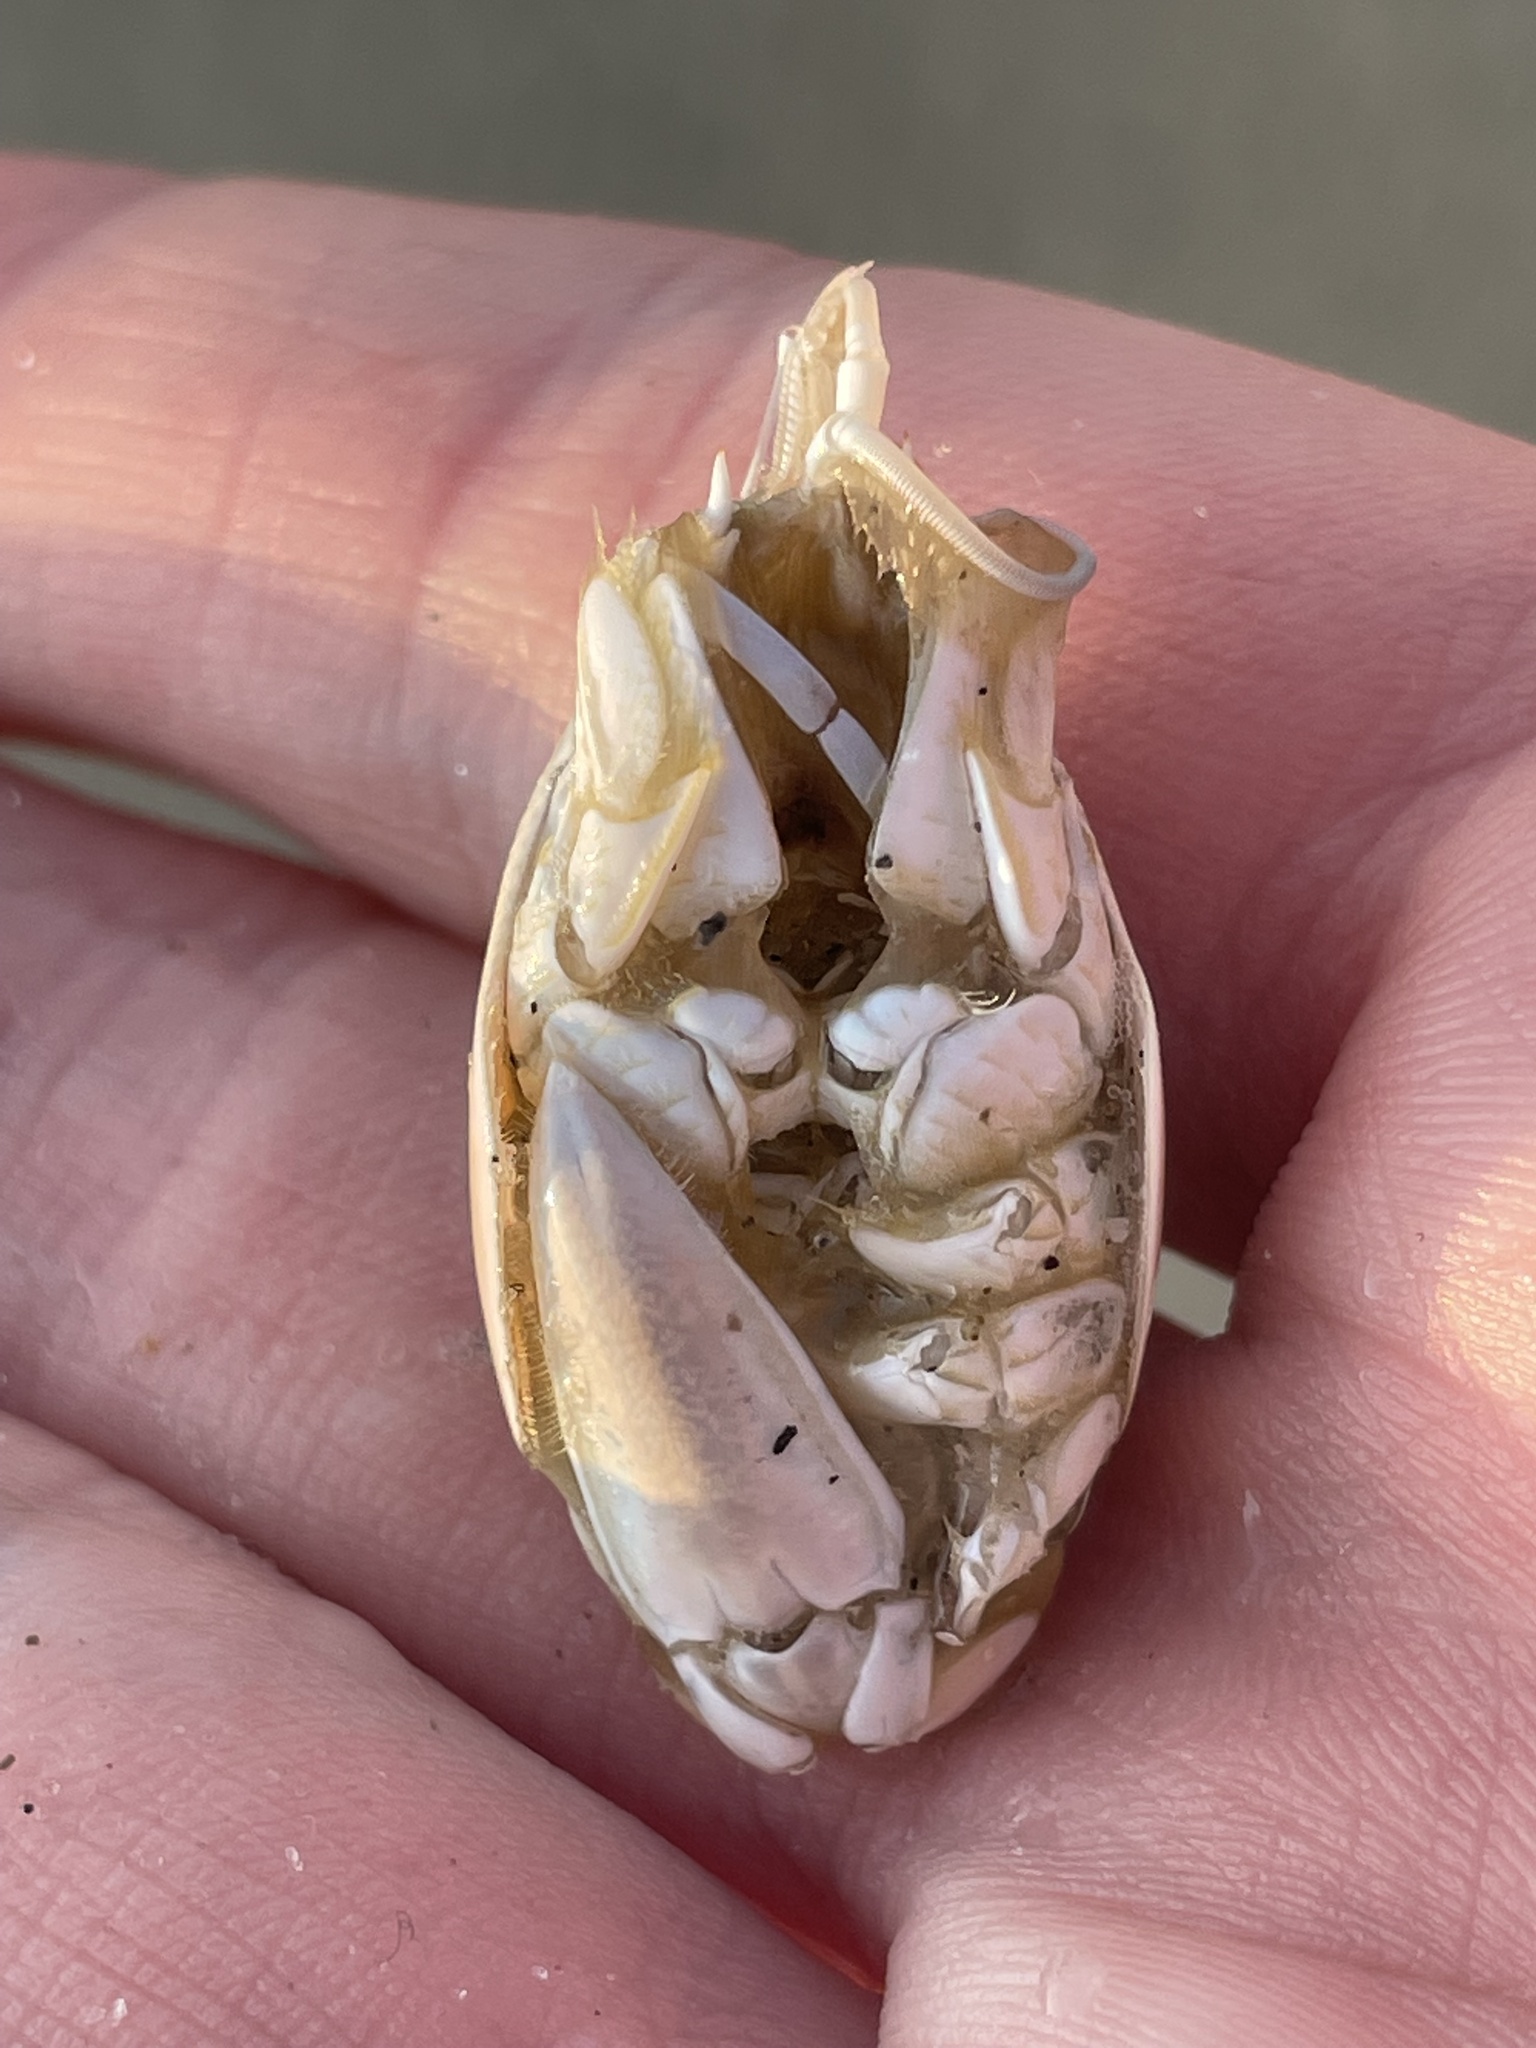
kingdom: Animalia
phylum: Arthropoda
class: Malacostraca
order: Decapoda
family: Hippidae
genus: Emerita
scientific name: Emerita talpoida
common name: Atlantic sand crab
